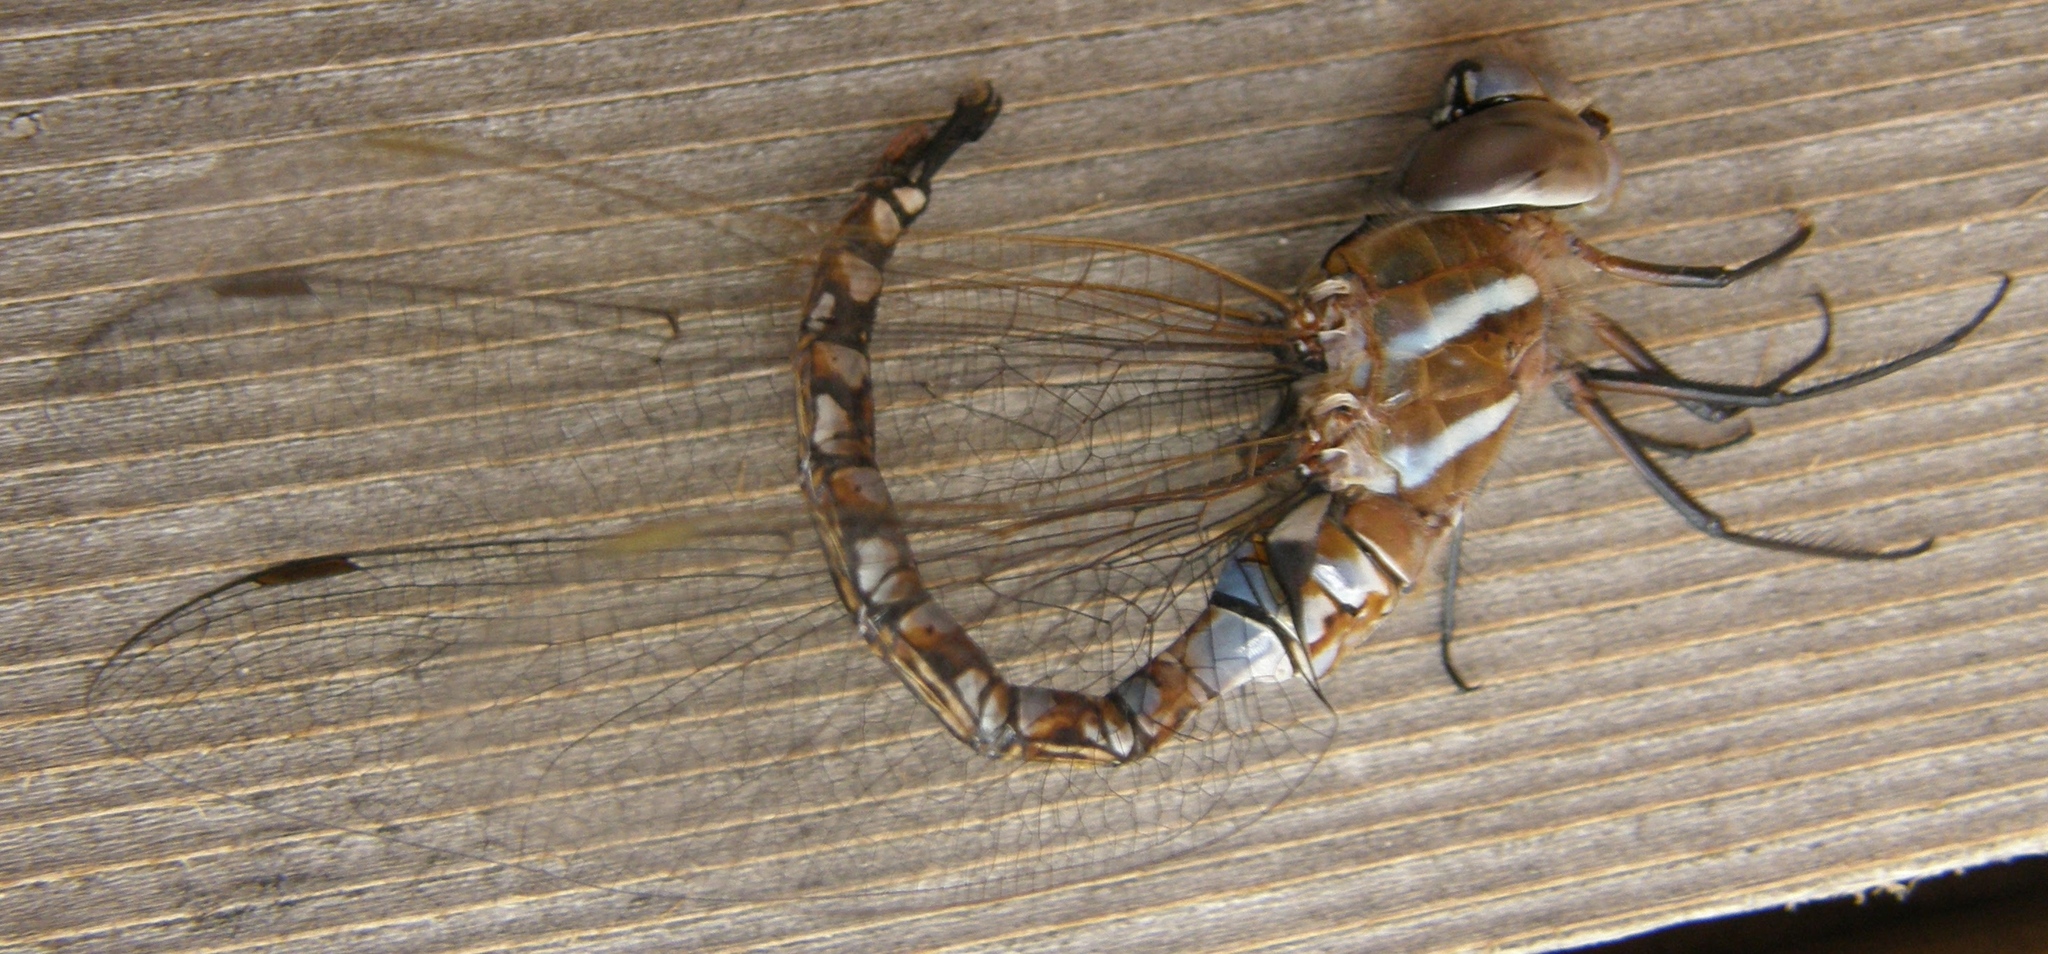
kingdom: Animalia
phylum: Arthropoda
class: Insecta
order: Odonata
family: Aeshnidae
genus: Rhionaeschna
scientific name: Rhionaeschna multicolor
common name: Blue-eyed darner
